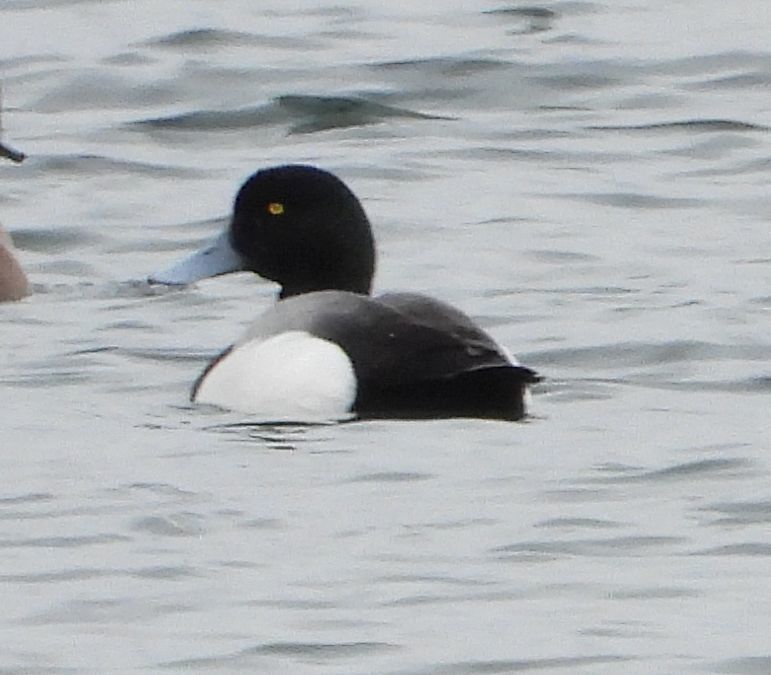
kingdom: Animalia
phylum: Chordata
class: Aves
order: Anseriformes
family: Anatidae
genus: Aythya
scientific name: Aythya marila
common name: Greater scaup
